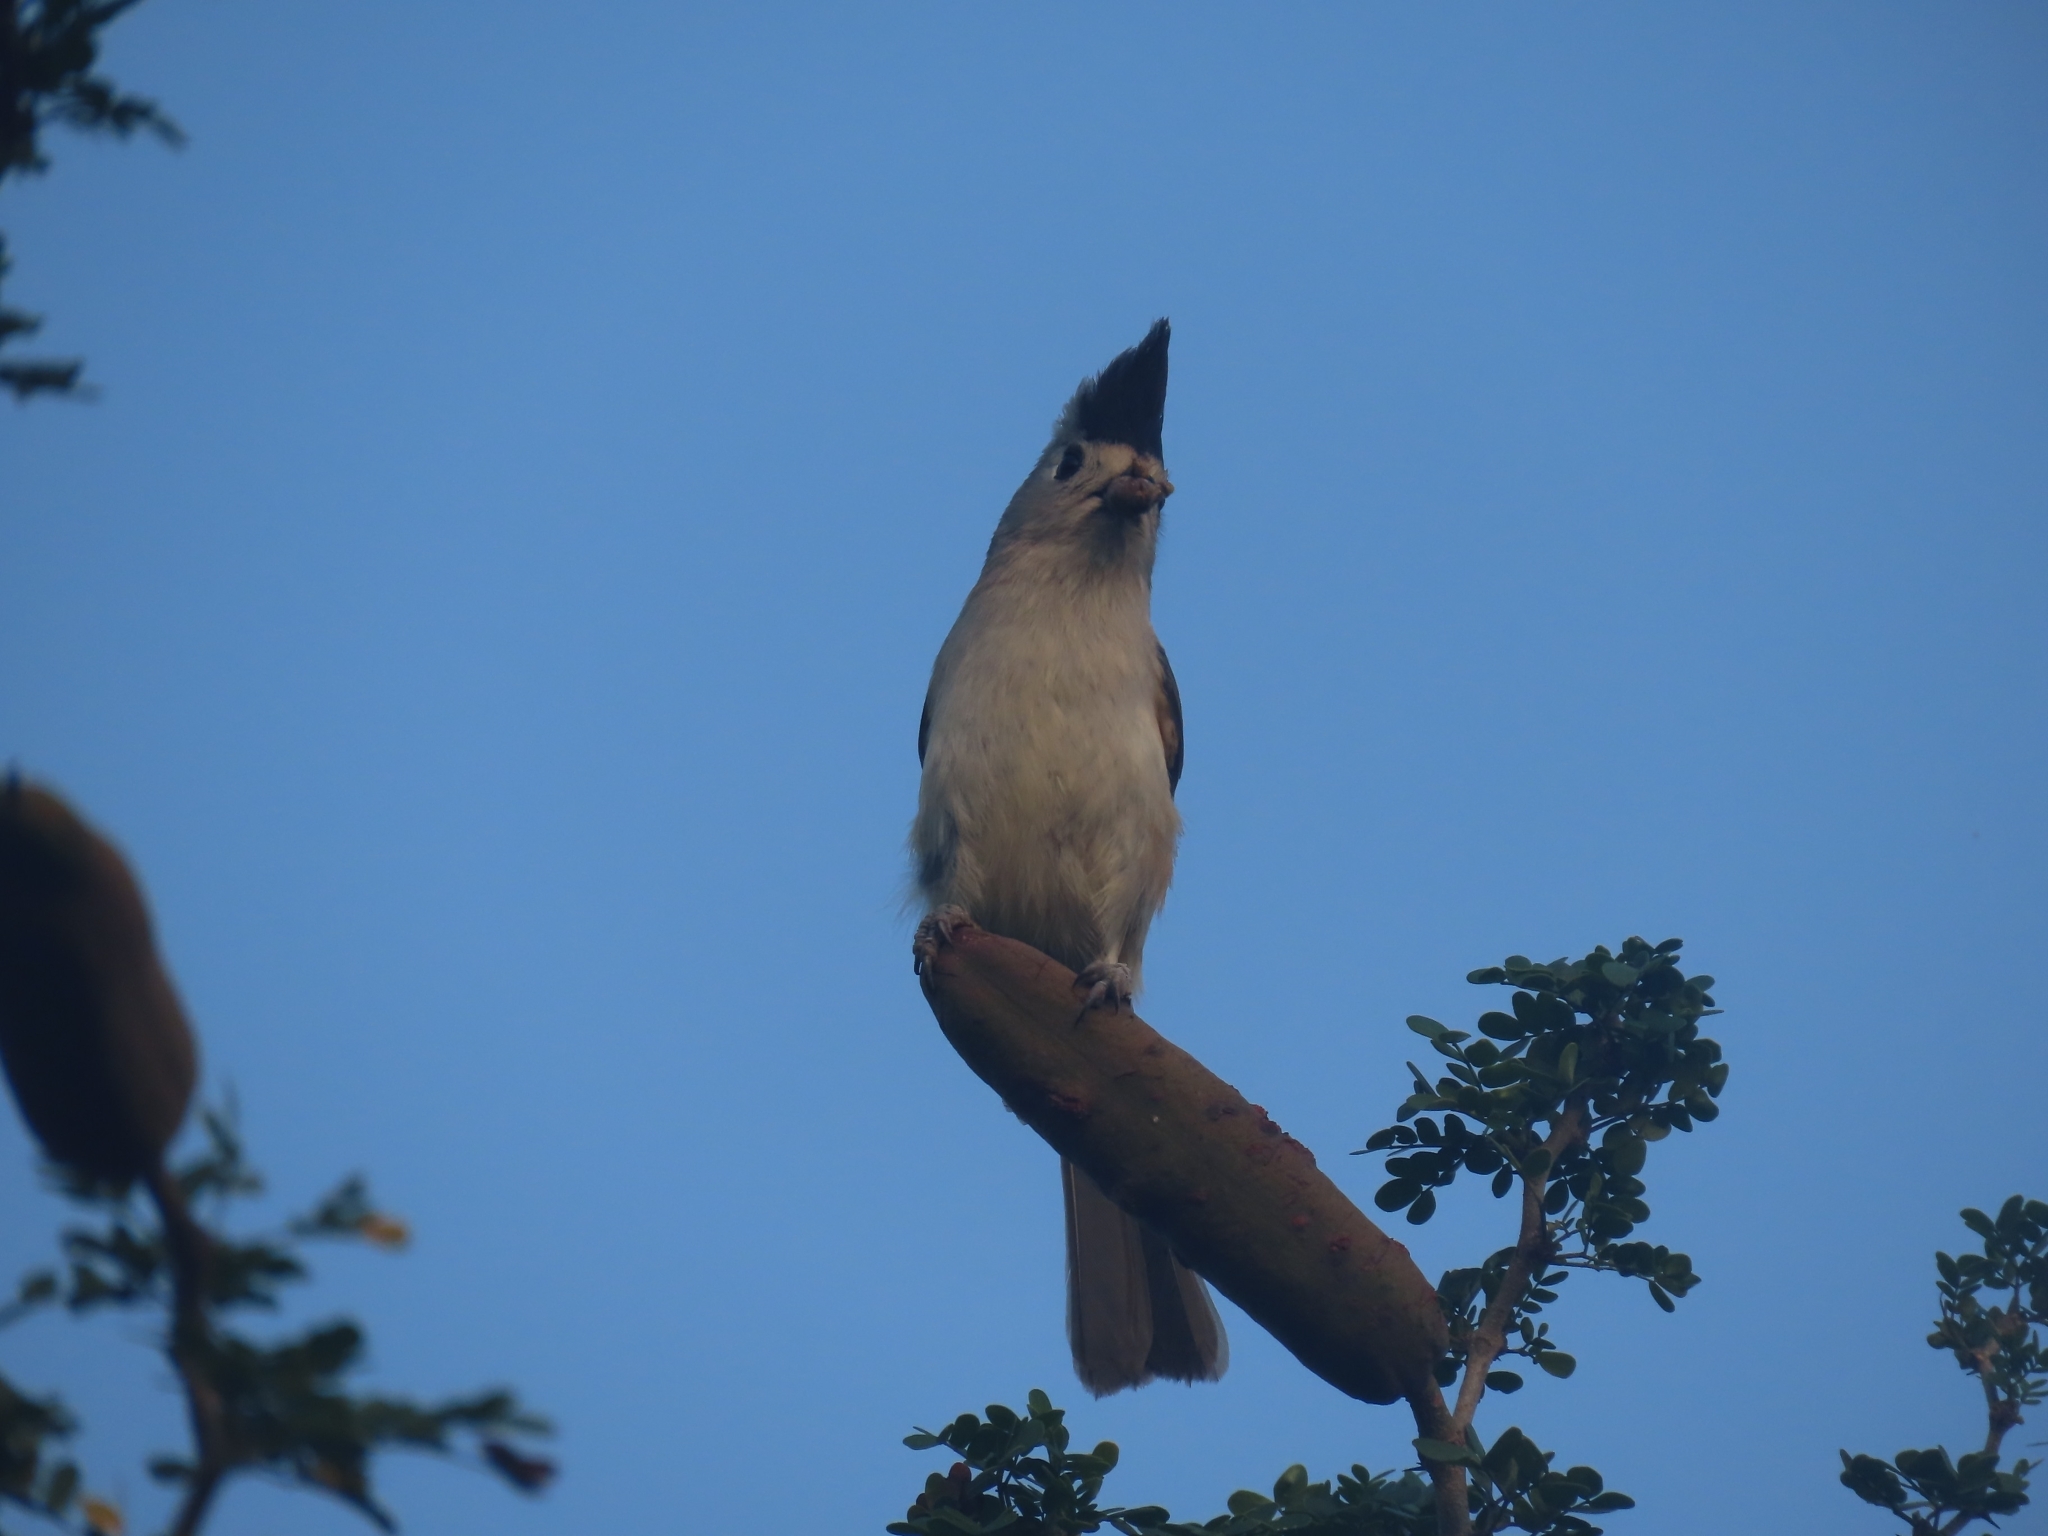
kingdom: Animalia
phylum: Chordata
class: Aves
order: Passeriformes
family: Paridae
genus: Baeolophus
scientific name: Baeolophus atricristatus
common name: Black-crested titmouse
